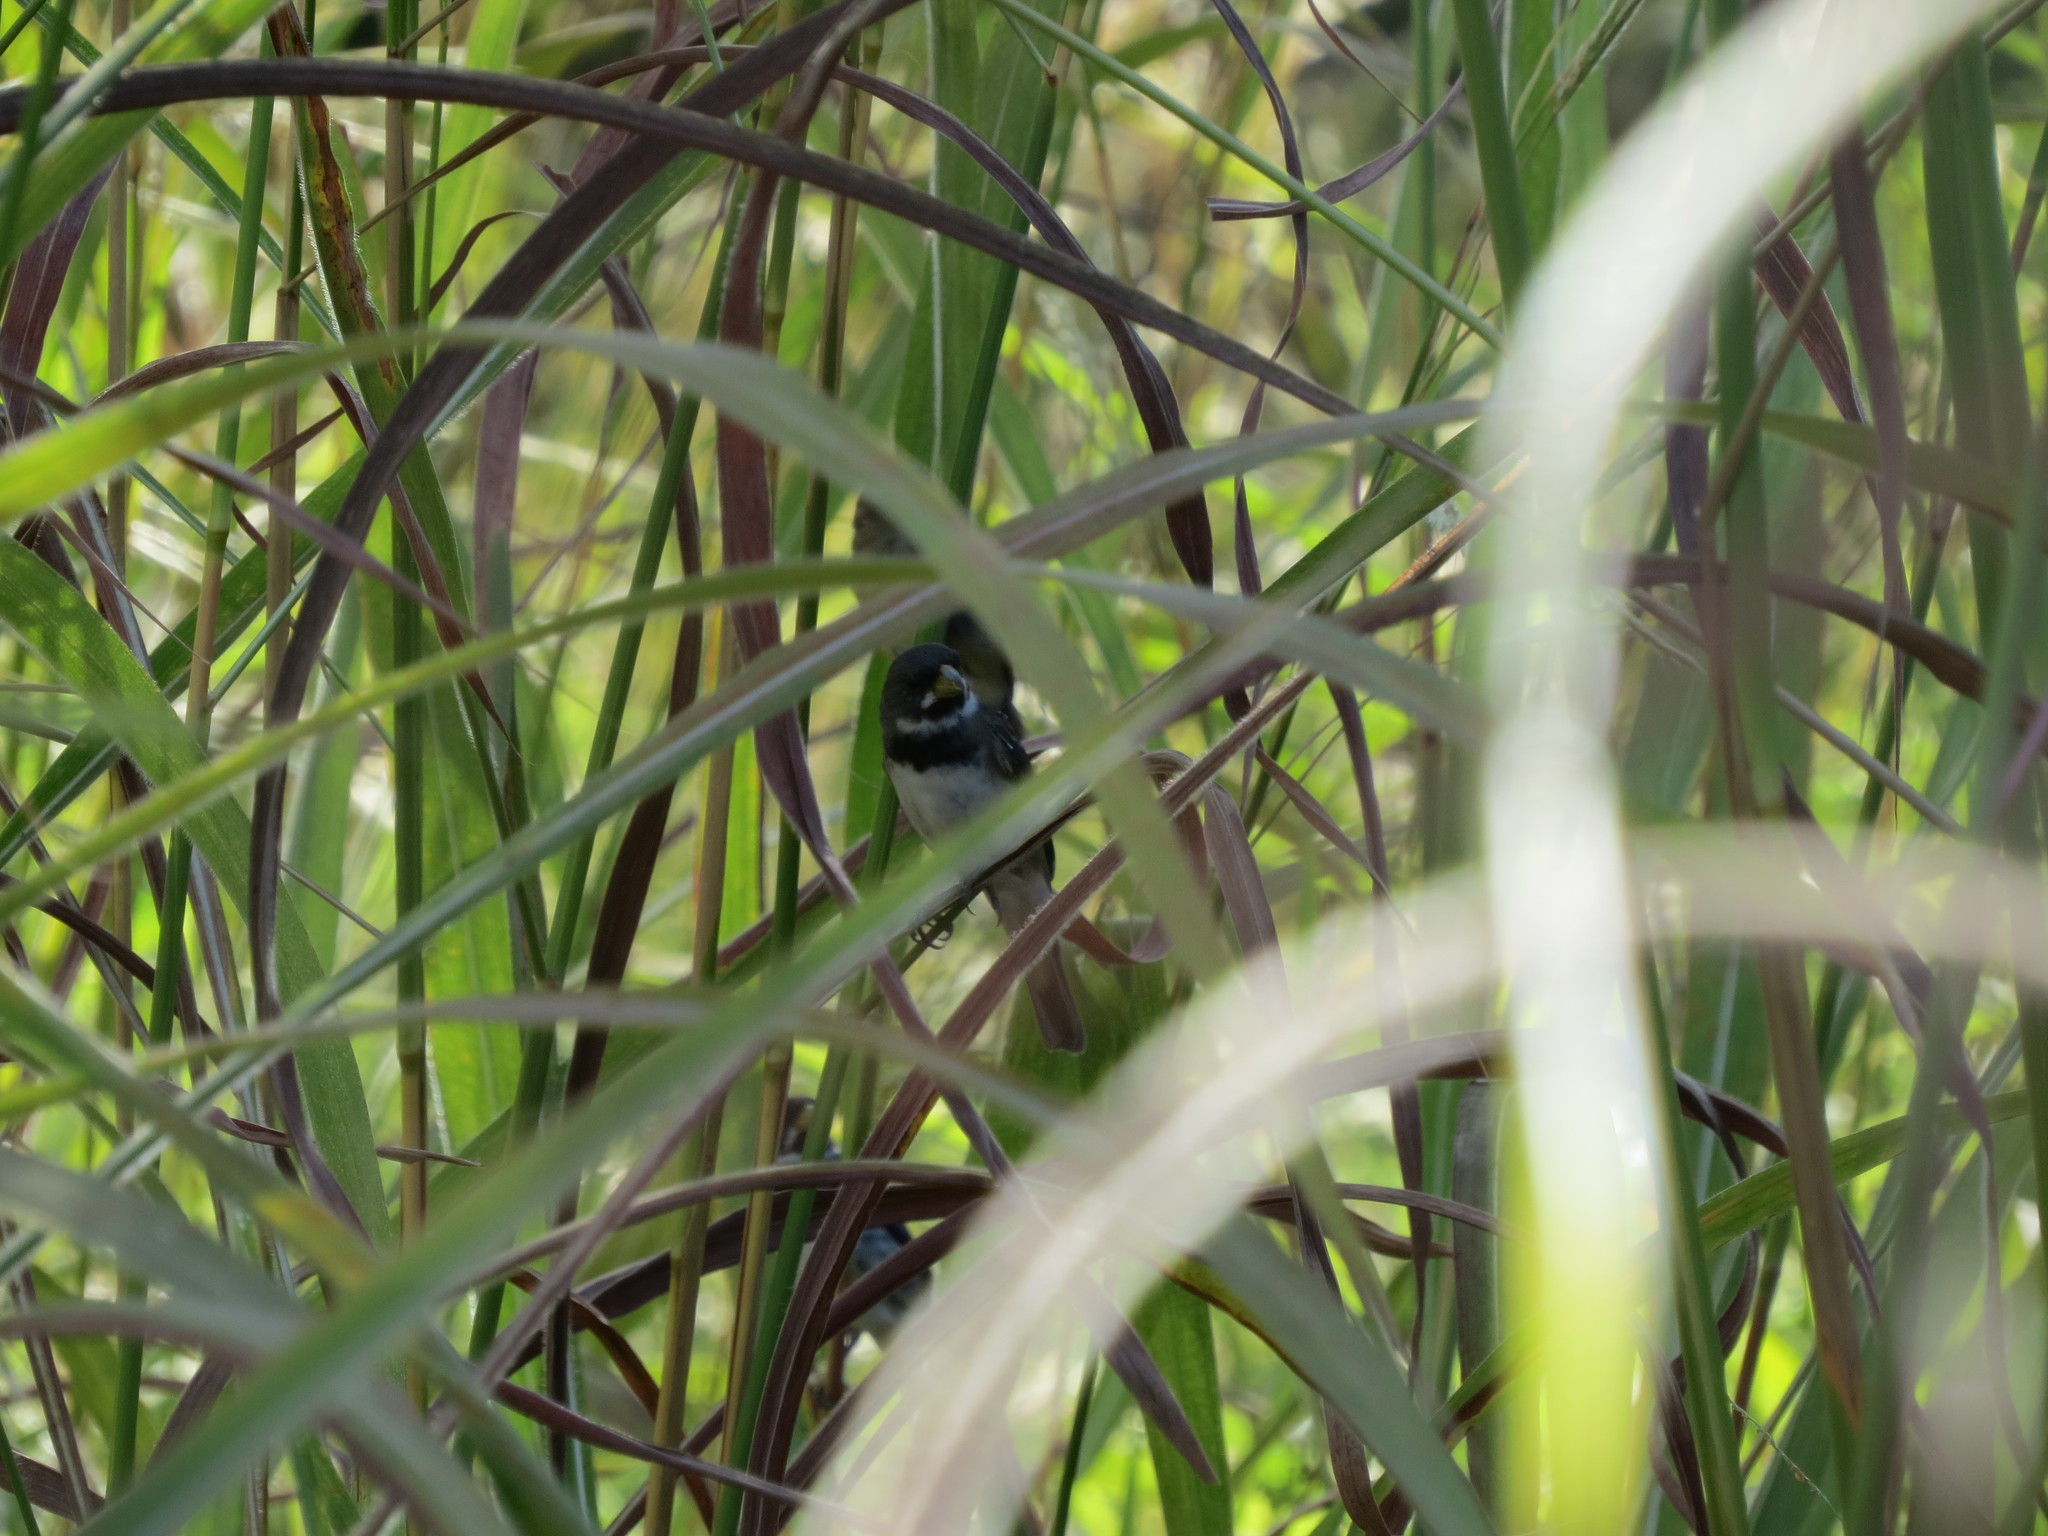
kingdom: Animalia
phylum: Chordata
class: Aves
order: Passeriformes
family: Thraupidae
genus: Sporophila
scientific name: Sporophila caerulescens
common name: Double-collared seedeater
